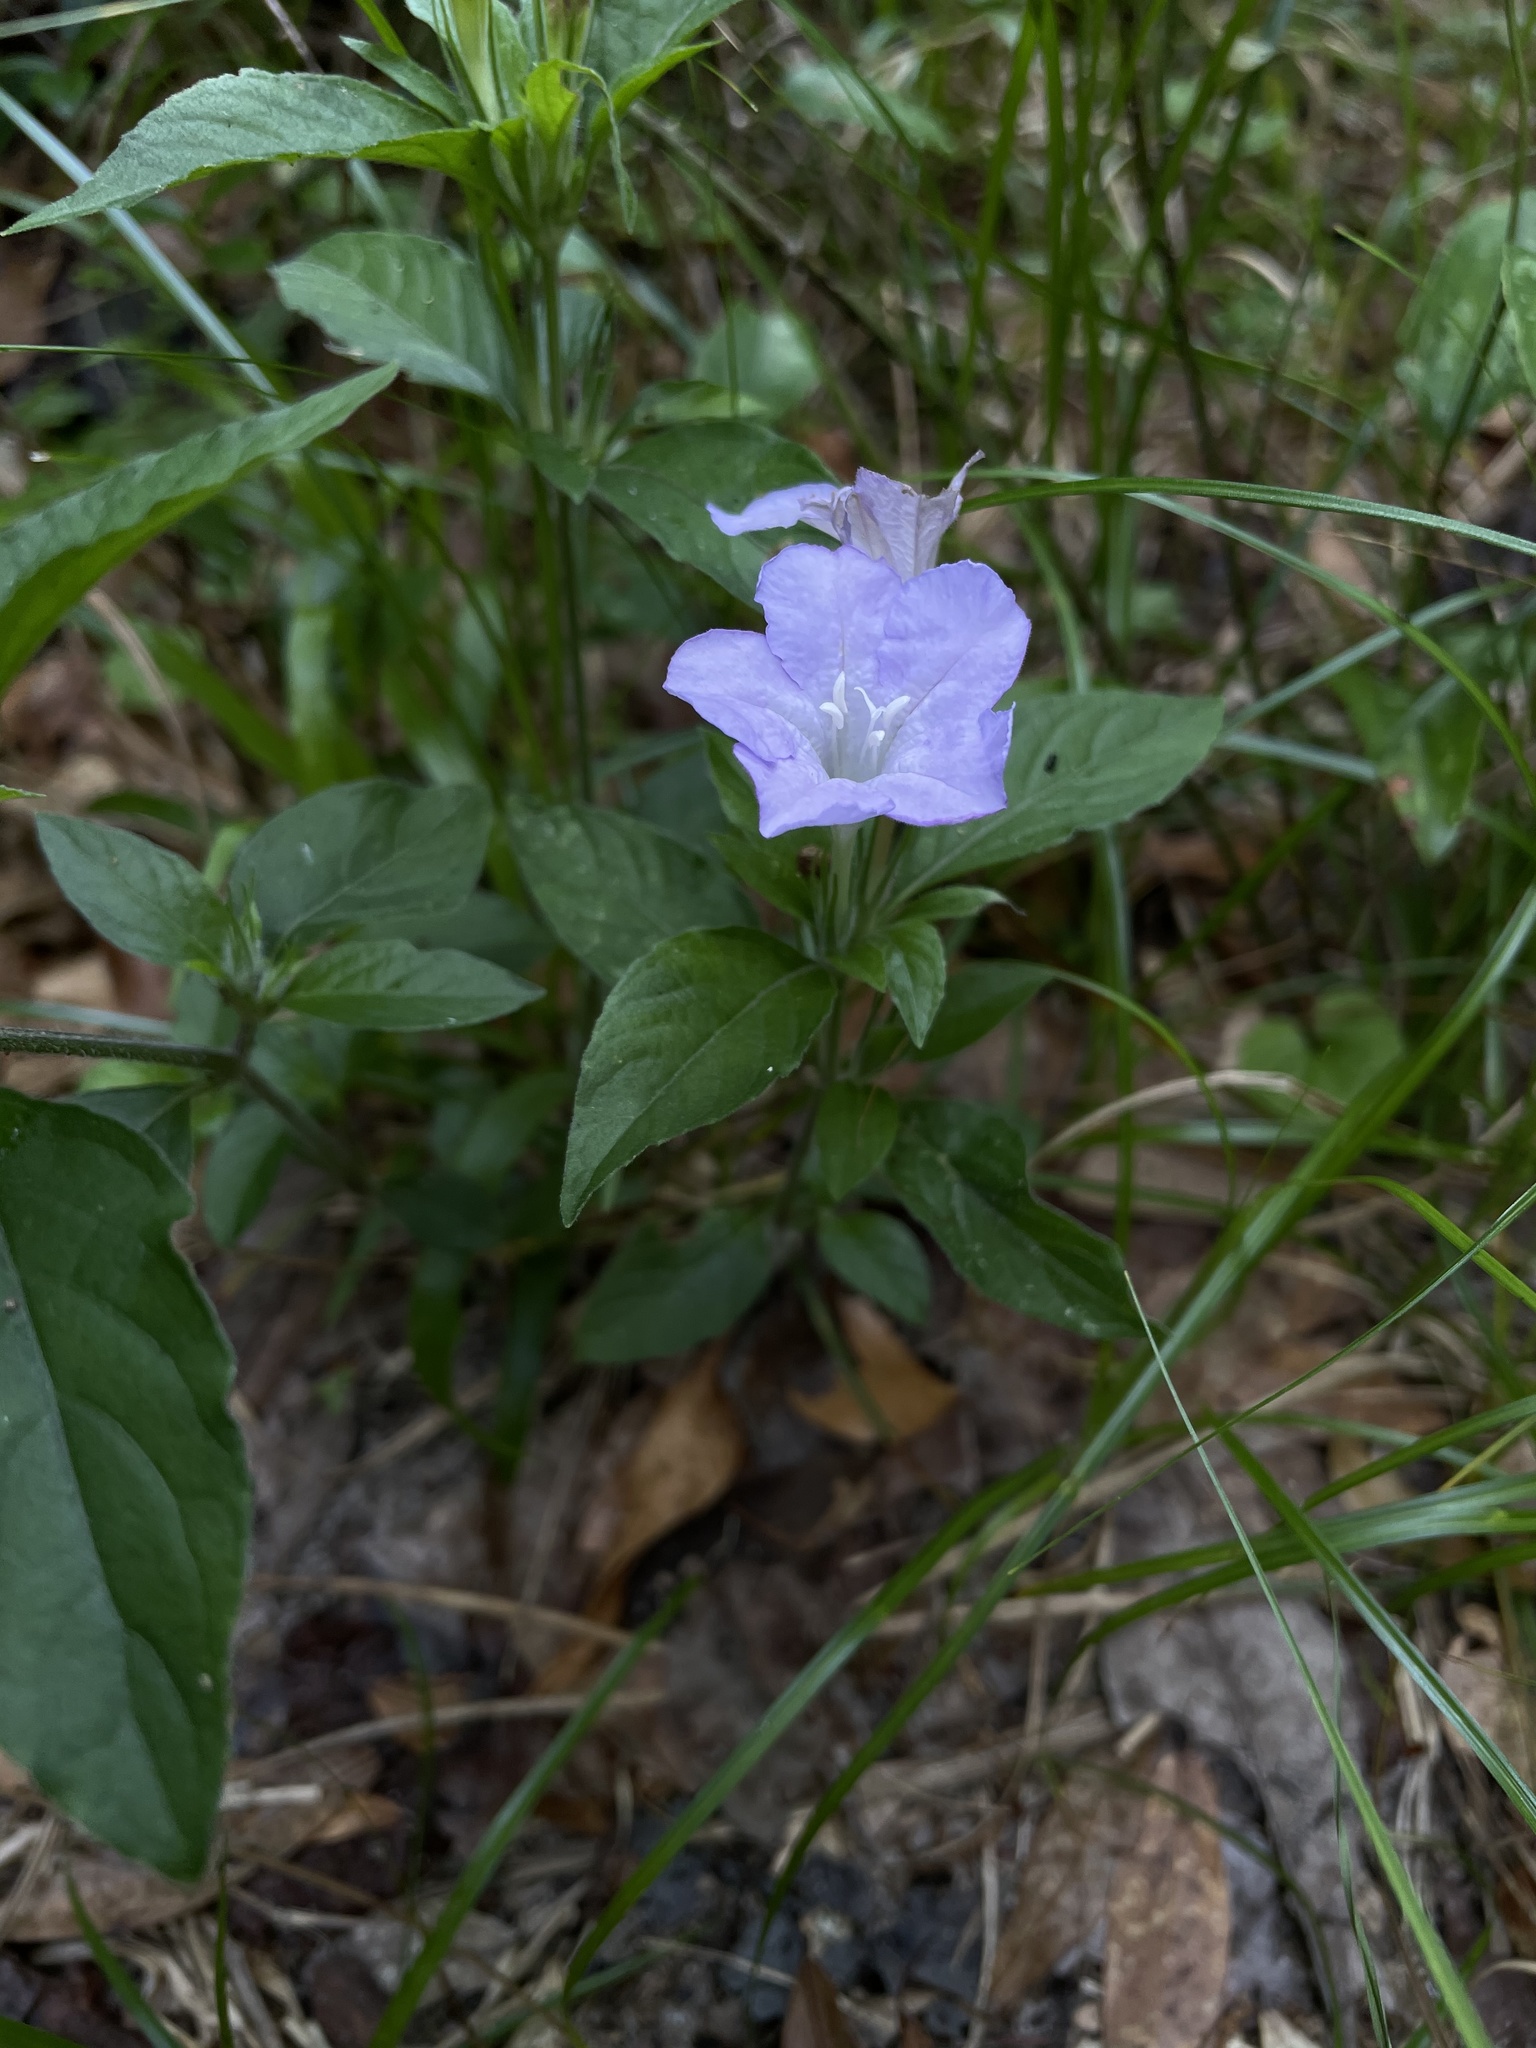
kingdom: Plantae
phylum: Tracheophyta
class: Magnoliopsida
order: Lamiales
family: Acanthaceae
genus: Ruellia
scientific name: Ruellia caroliniensis
